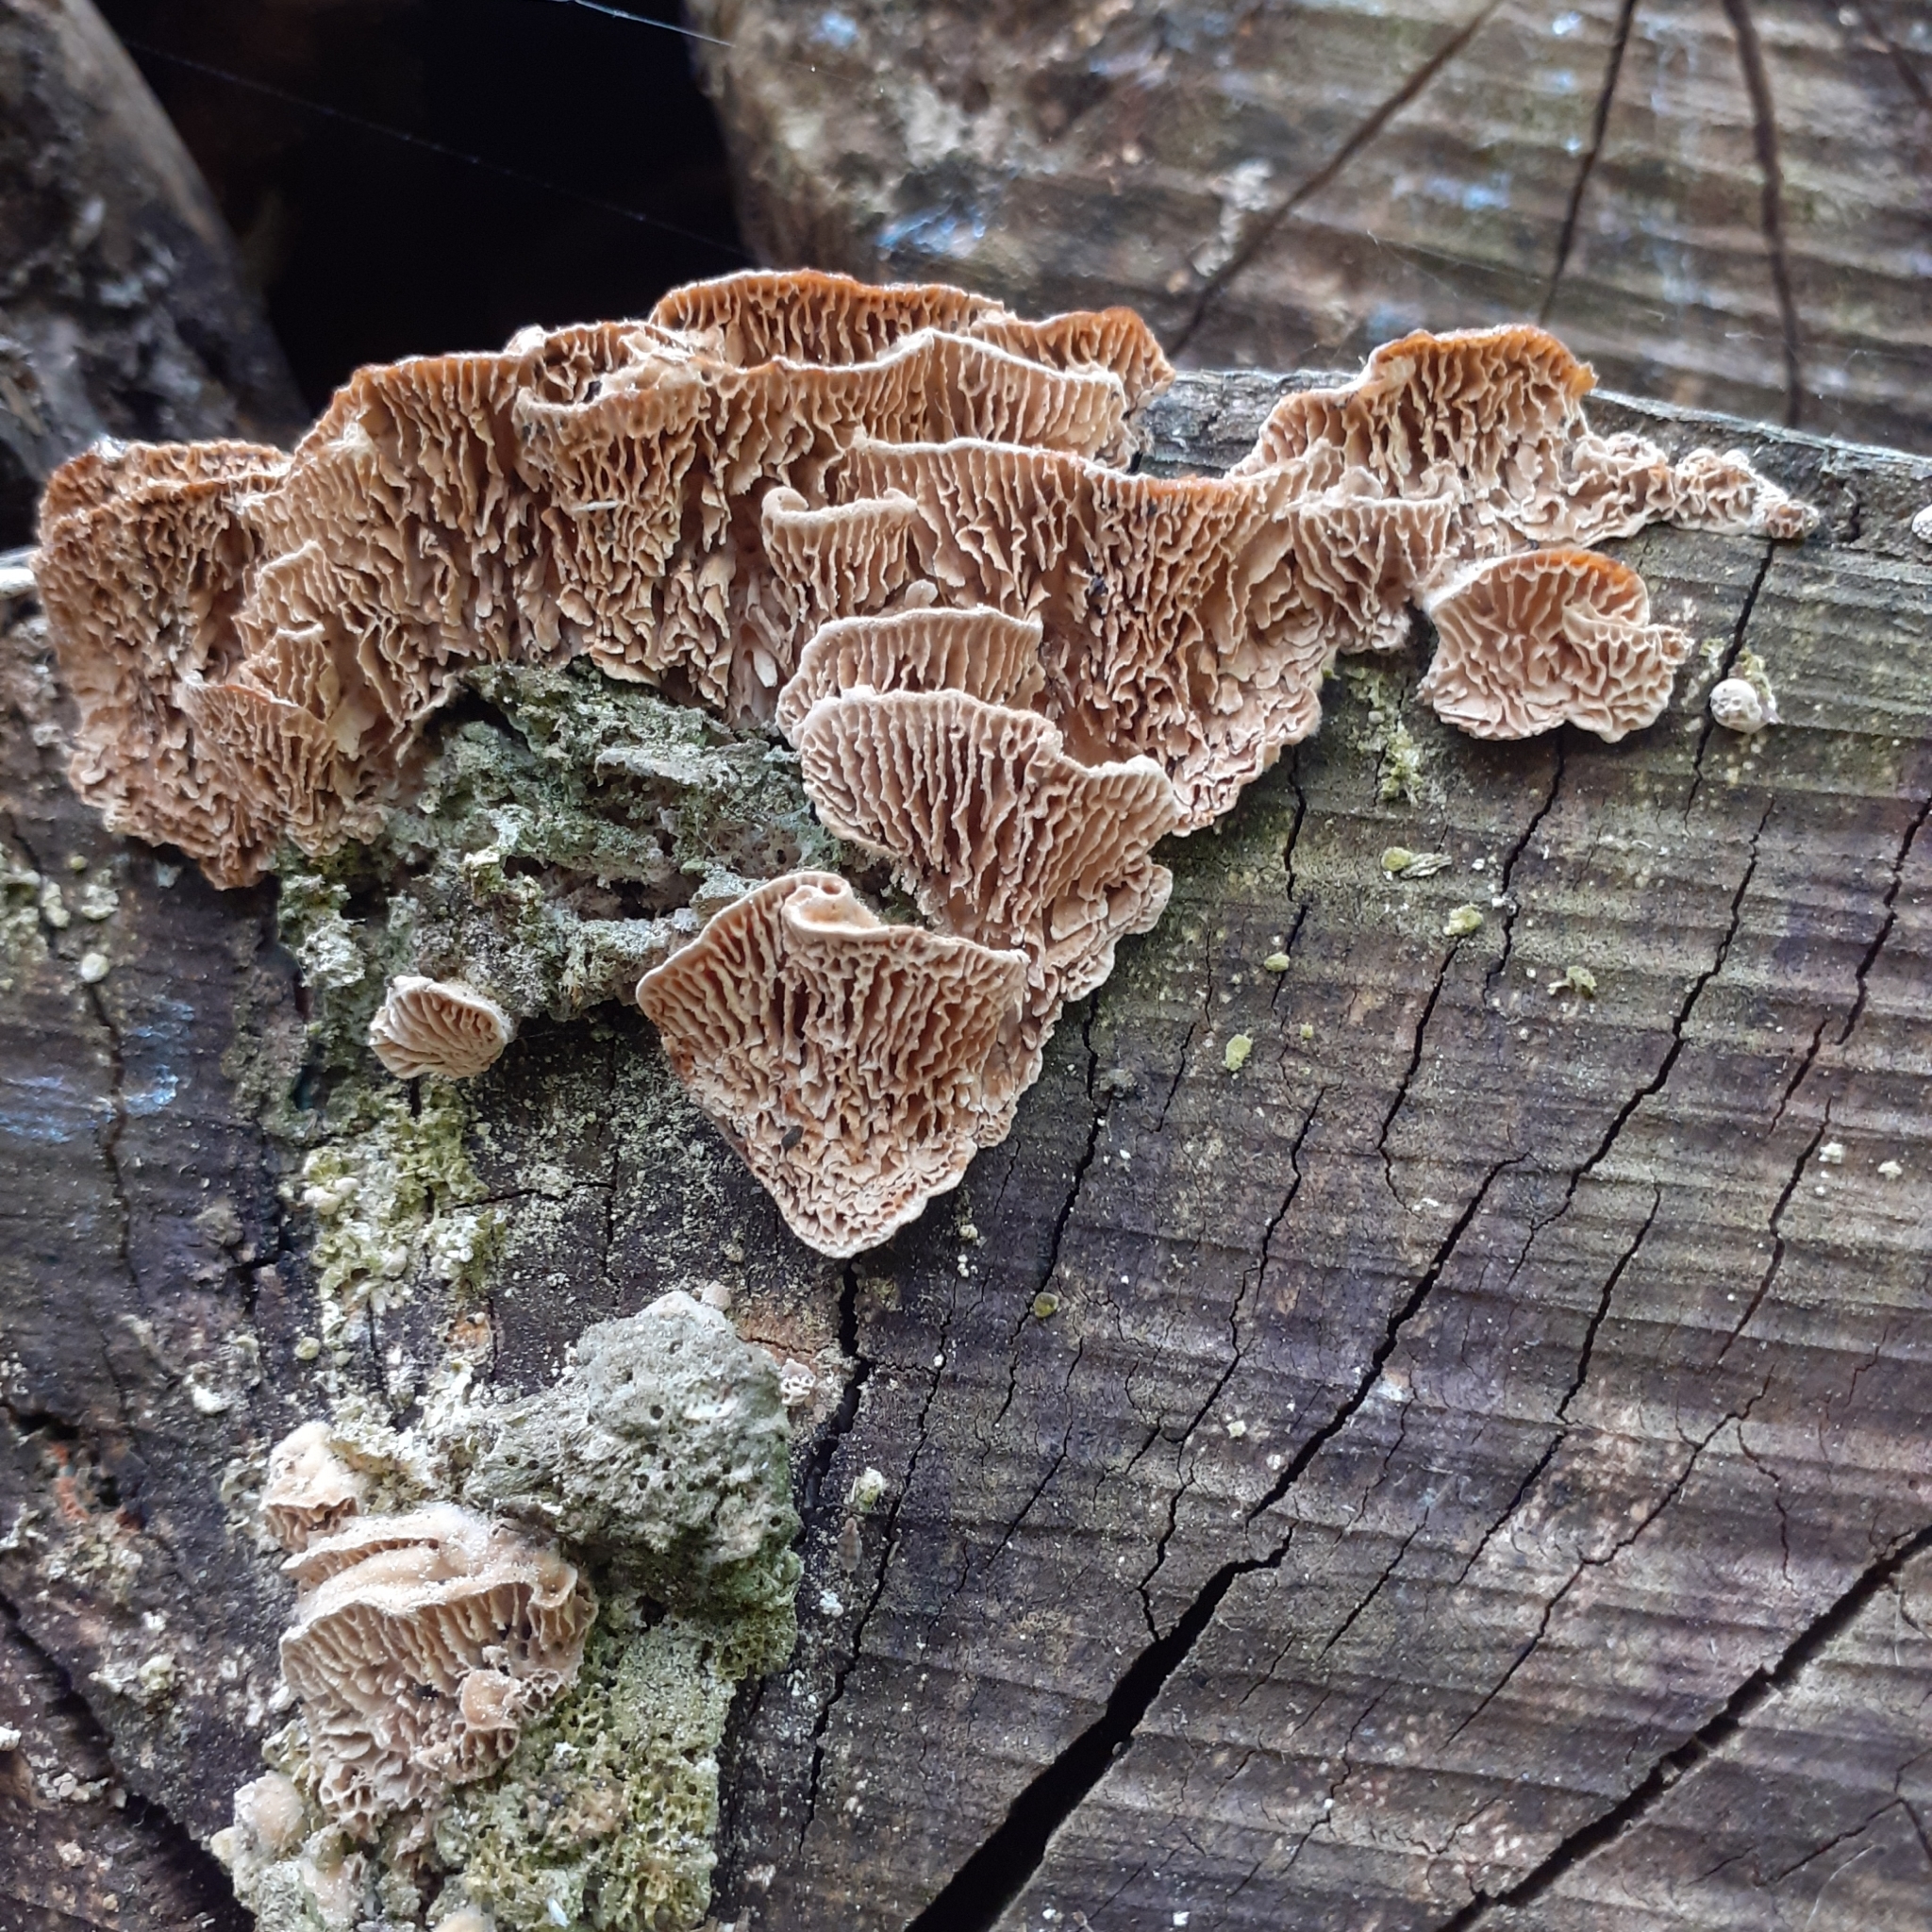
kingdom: Fungi
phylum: Basidiomycota
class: Agaricomycetes
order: Polyporales
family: Fomitopsidaceae
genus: Fomitopsis
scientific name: Fomitopsis
